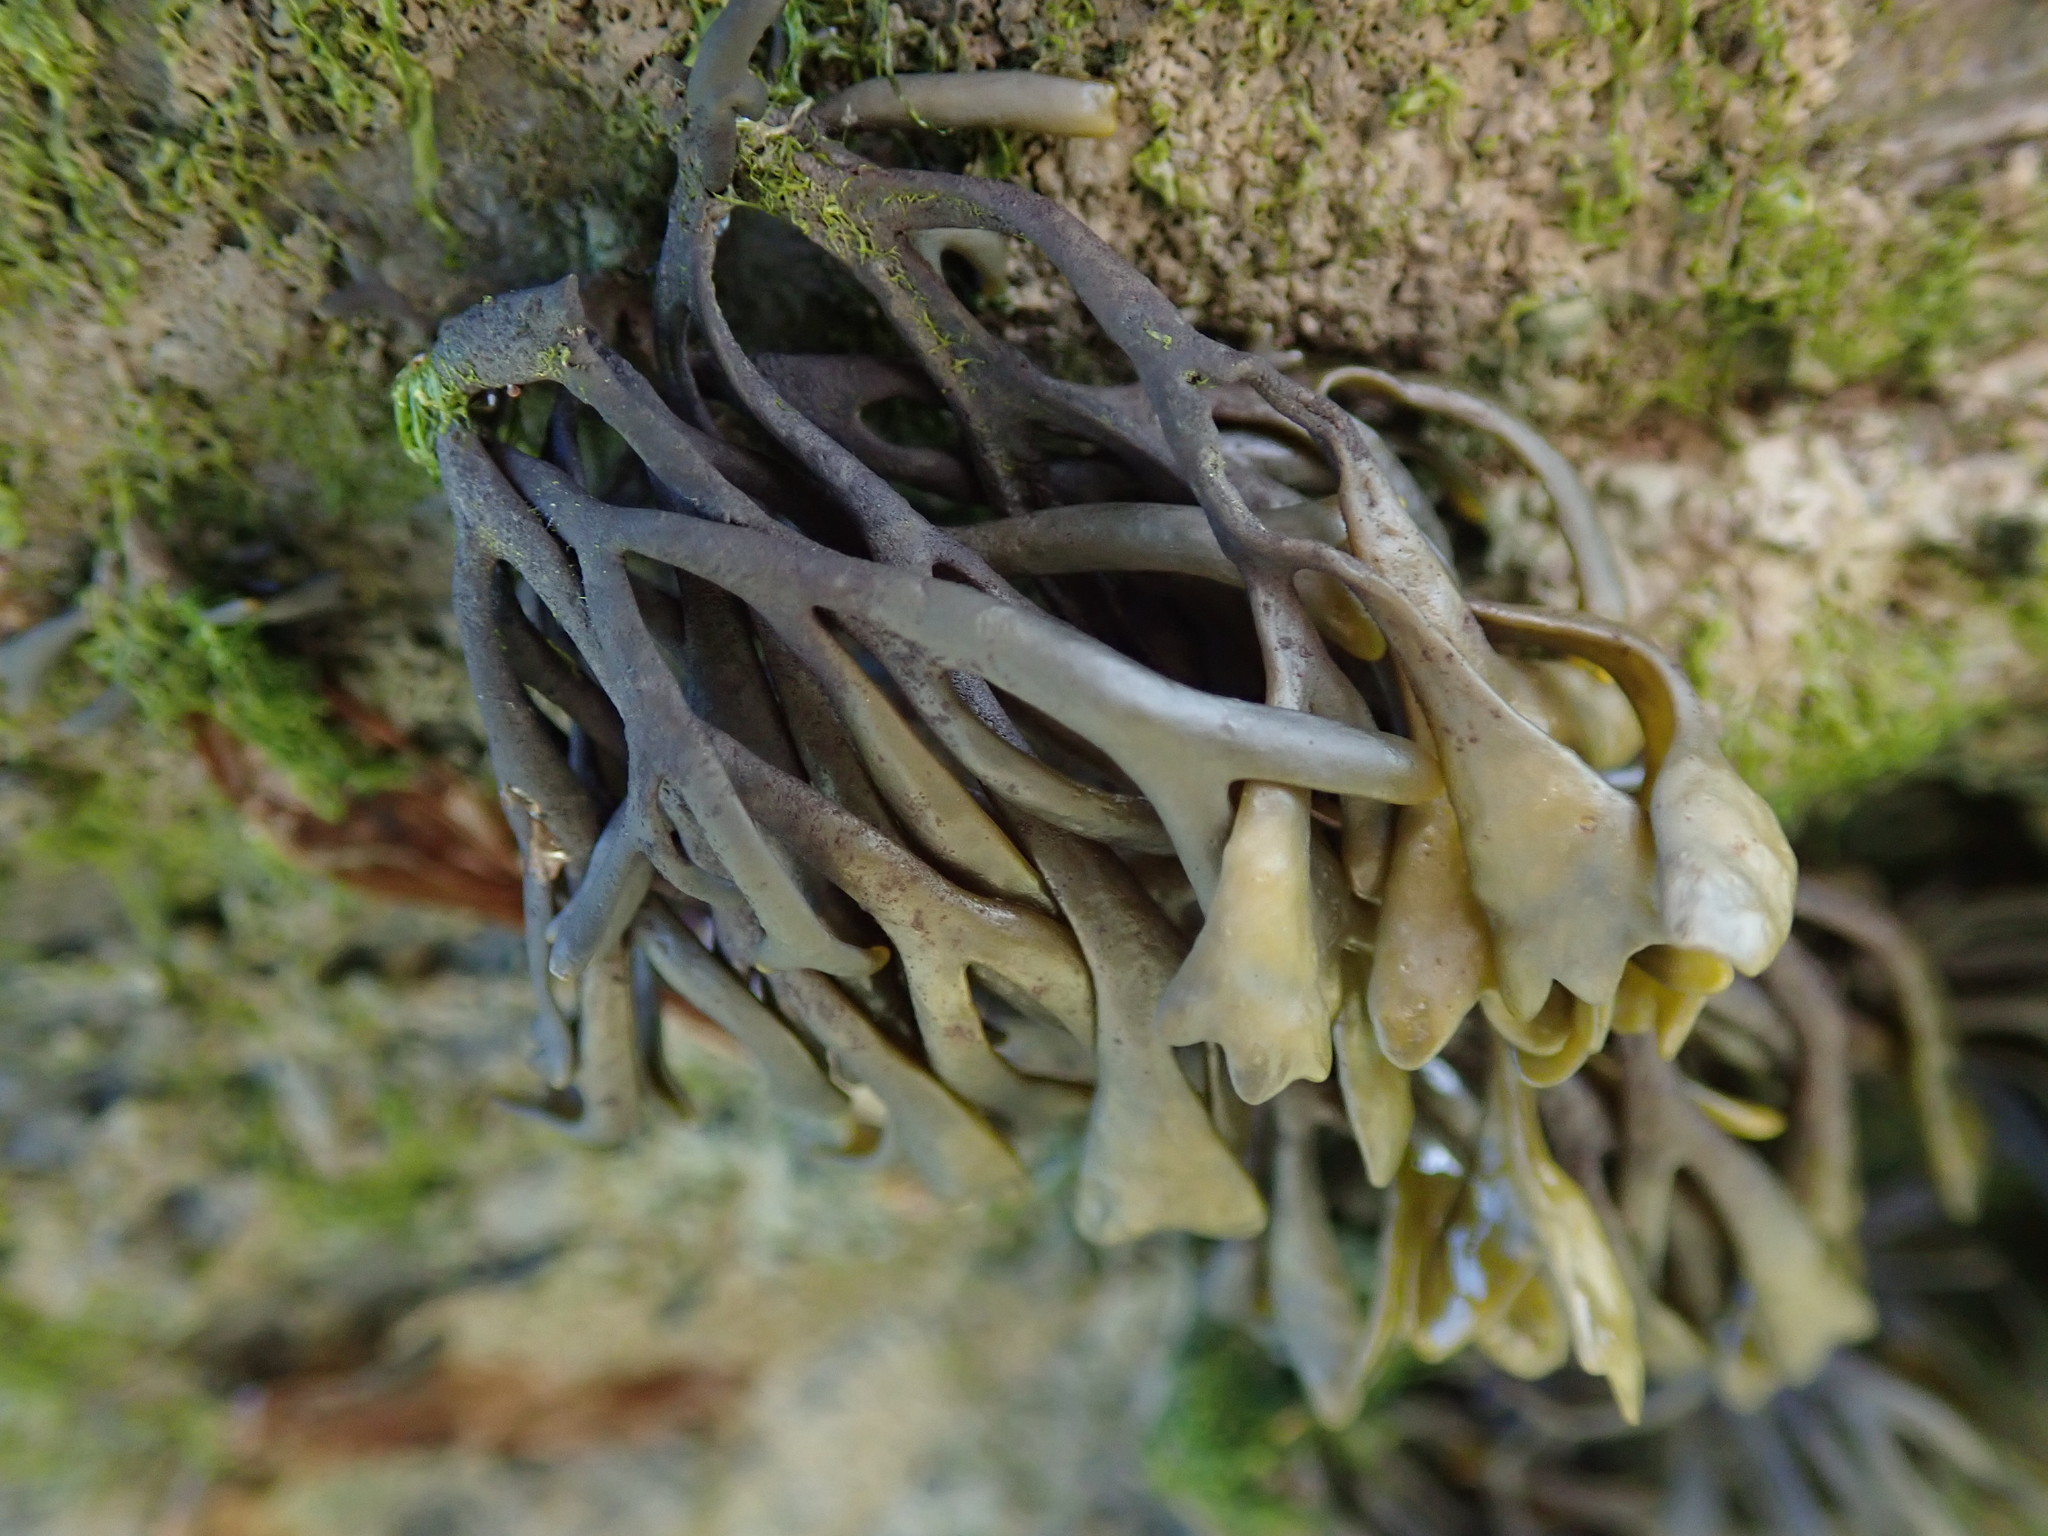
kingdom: Chromista
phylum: Ochrophyta
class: Phaeophyceae
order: Fucales
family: Fucaceae
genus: Pelvetia
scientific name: Pelvetia canaliculata
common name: Channelled wrack
